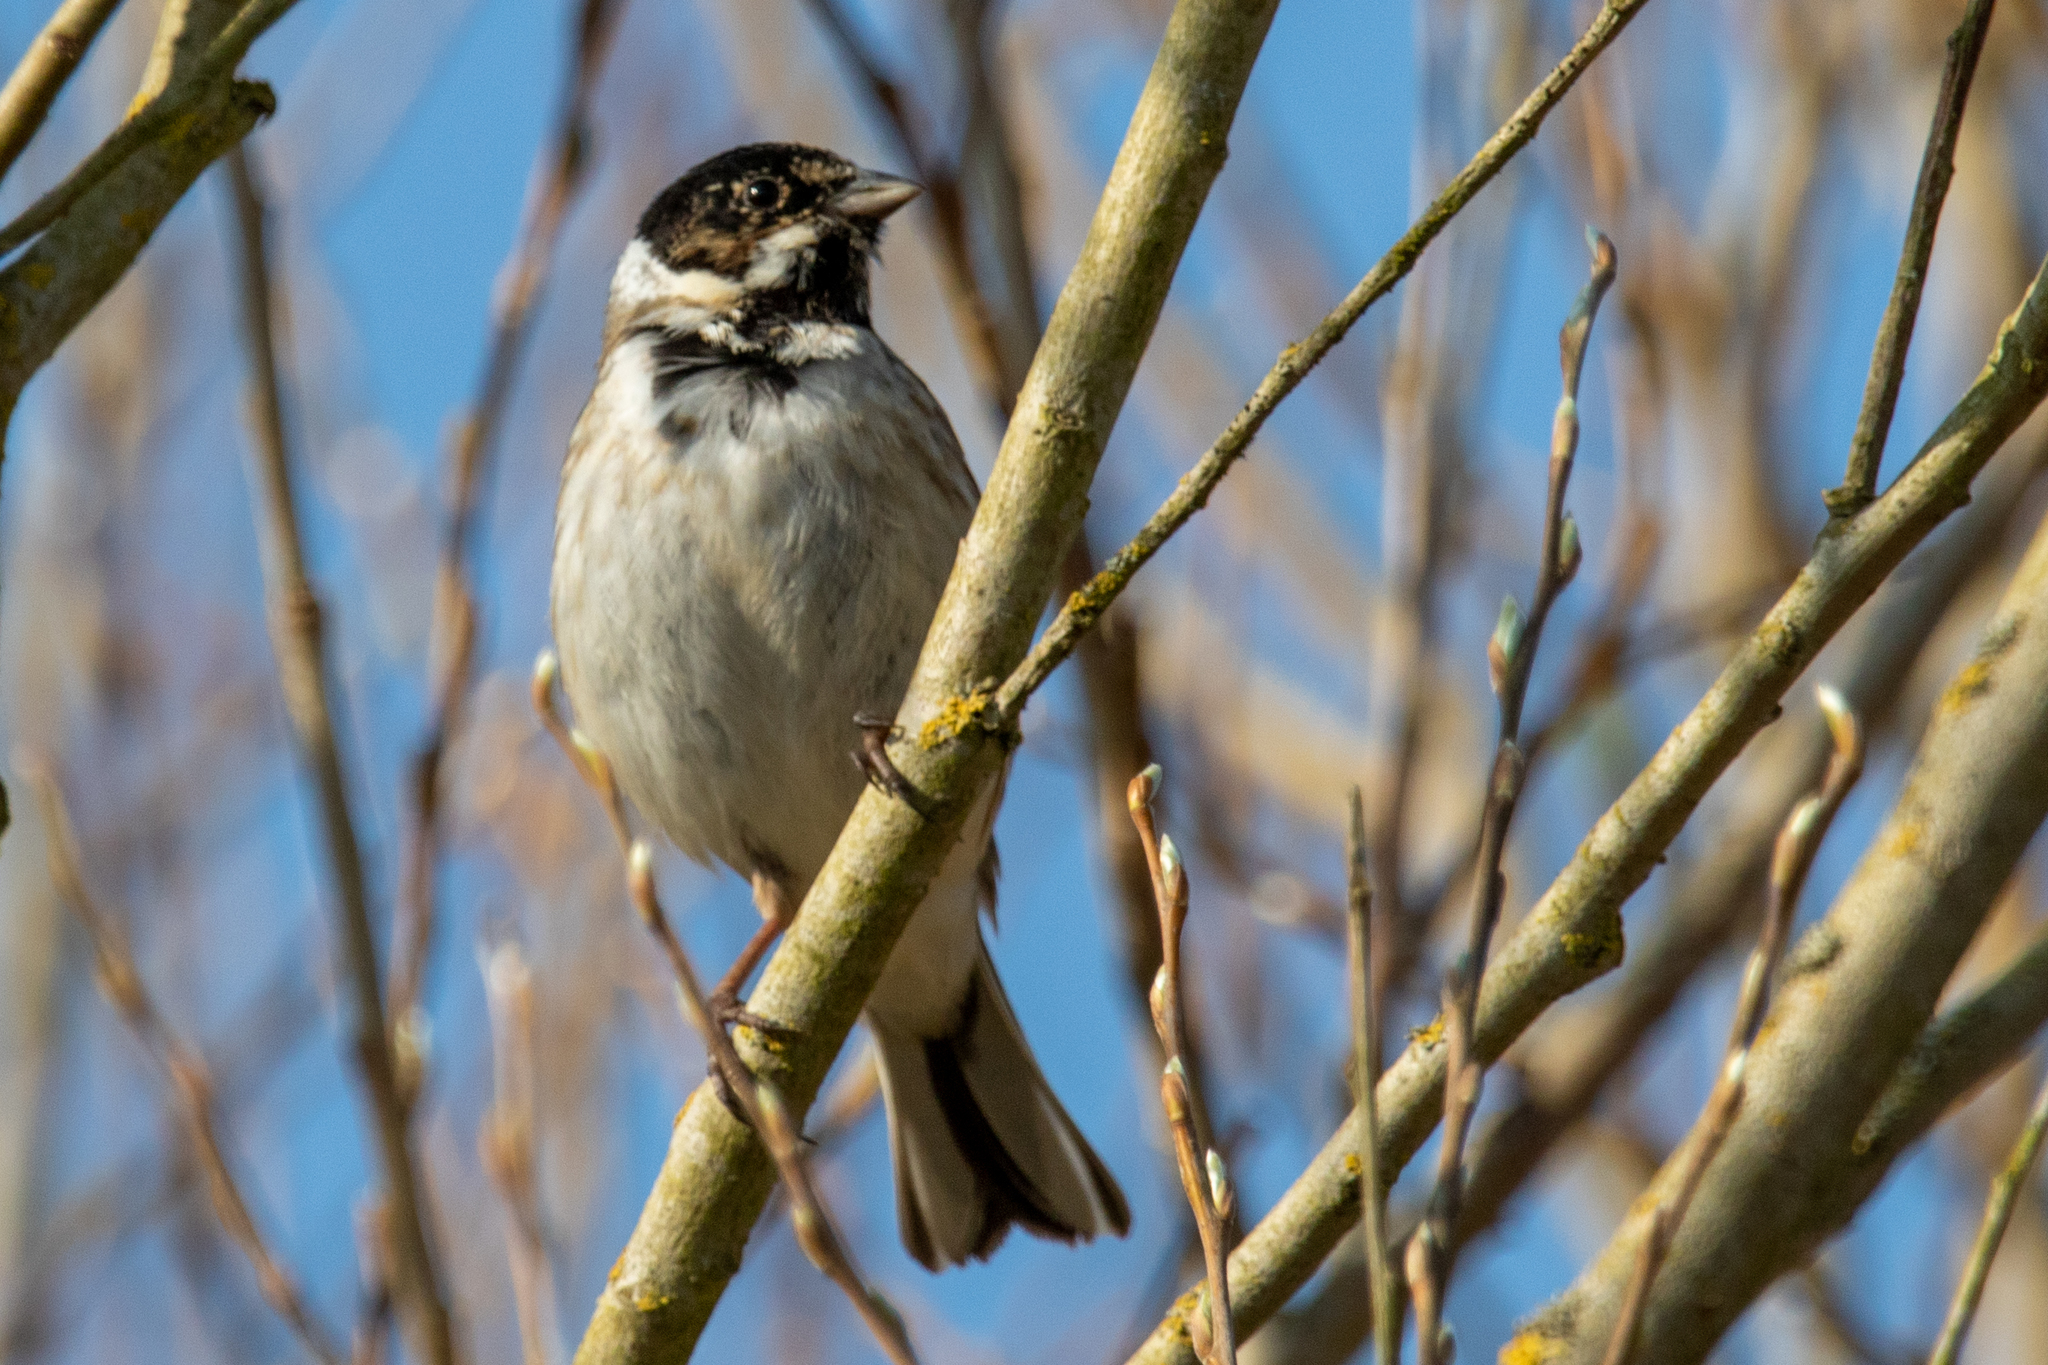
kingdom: Animalia
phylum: Chordata
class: Aves
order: Passeriformes
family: Emberizidae
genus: Emberiza
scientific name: Emberiza schoeniclus
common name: Reed bunting
